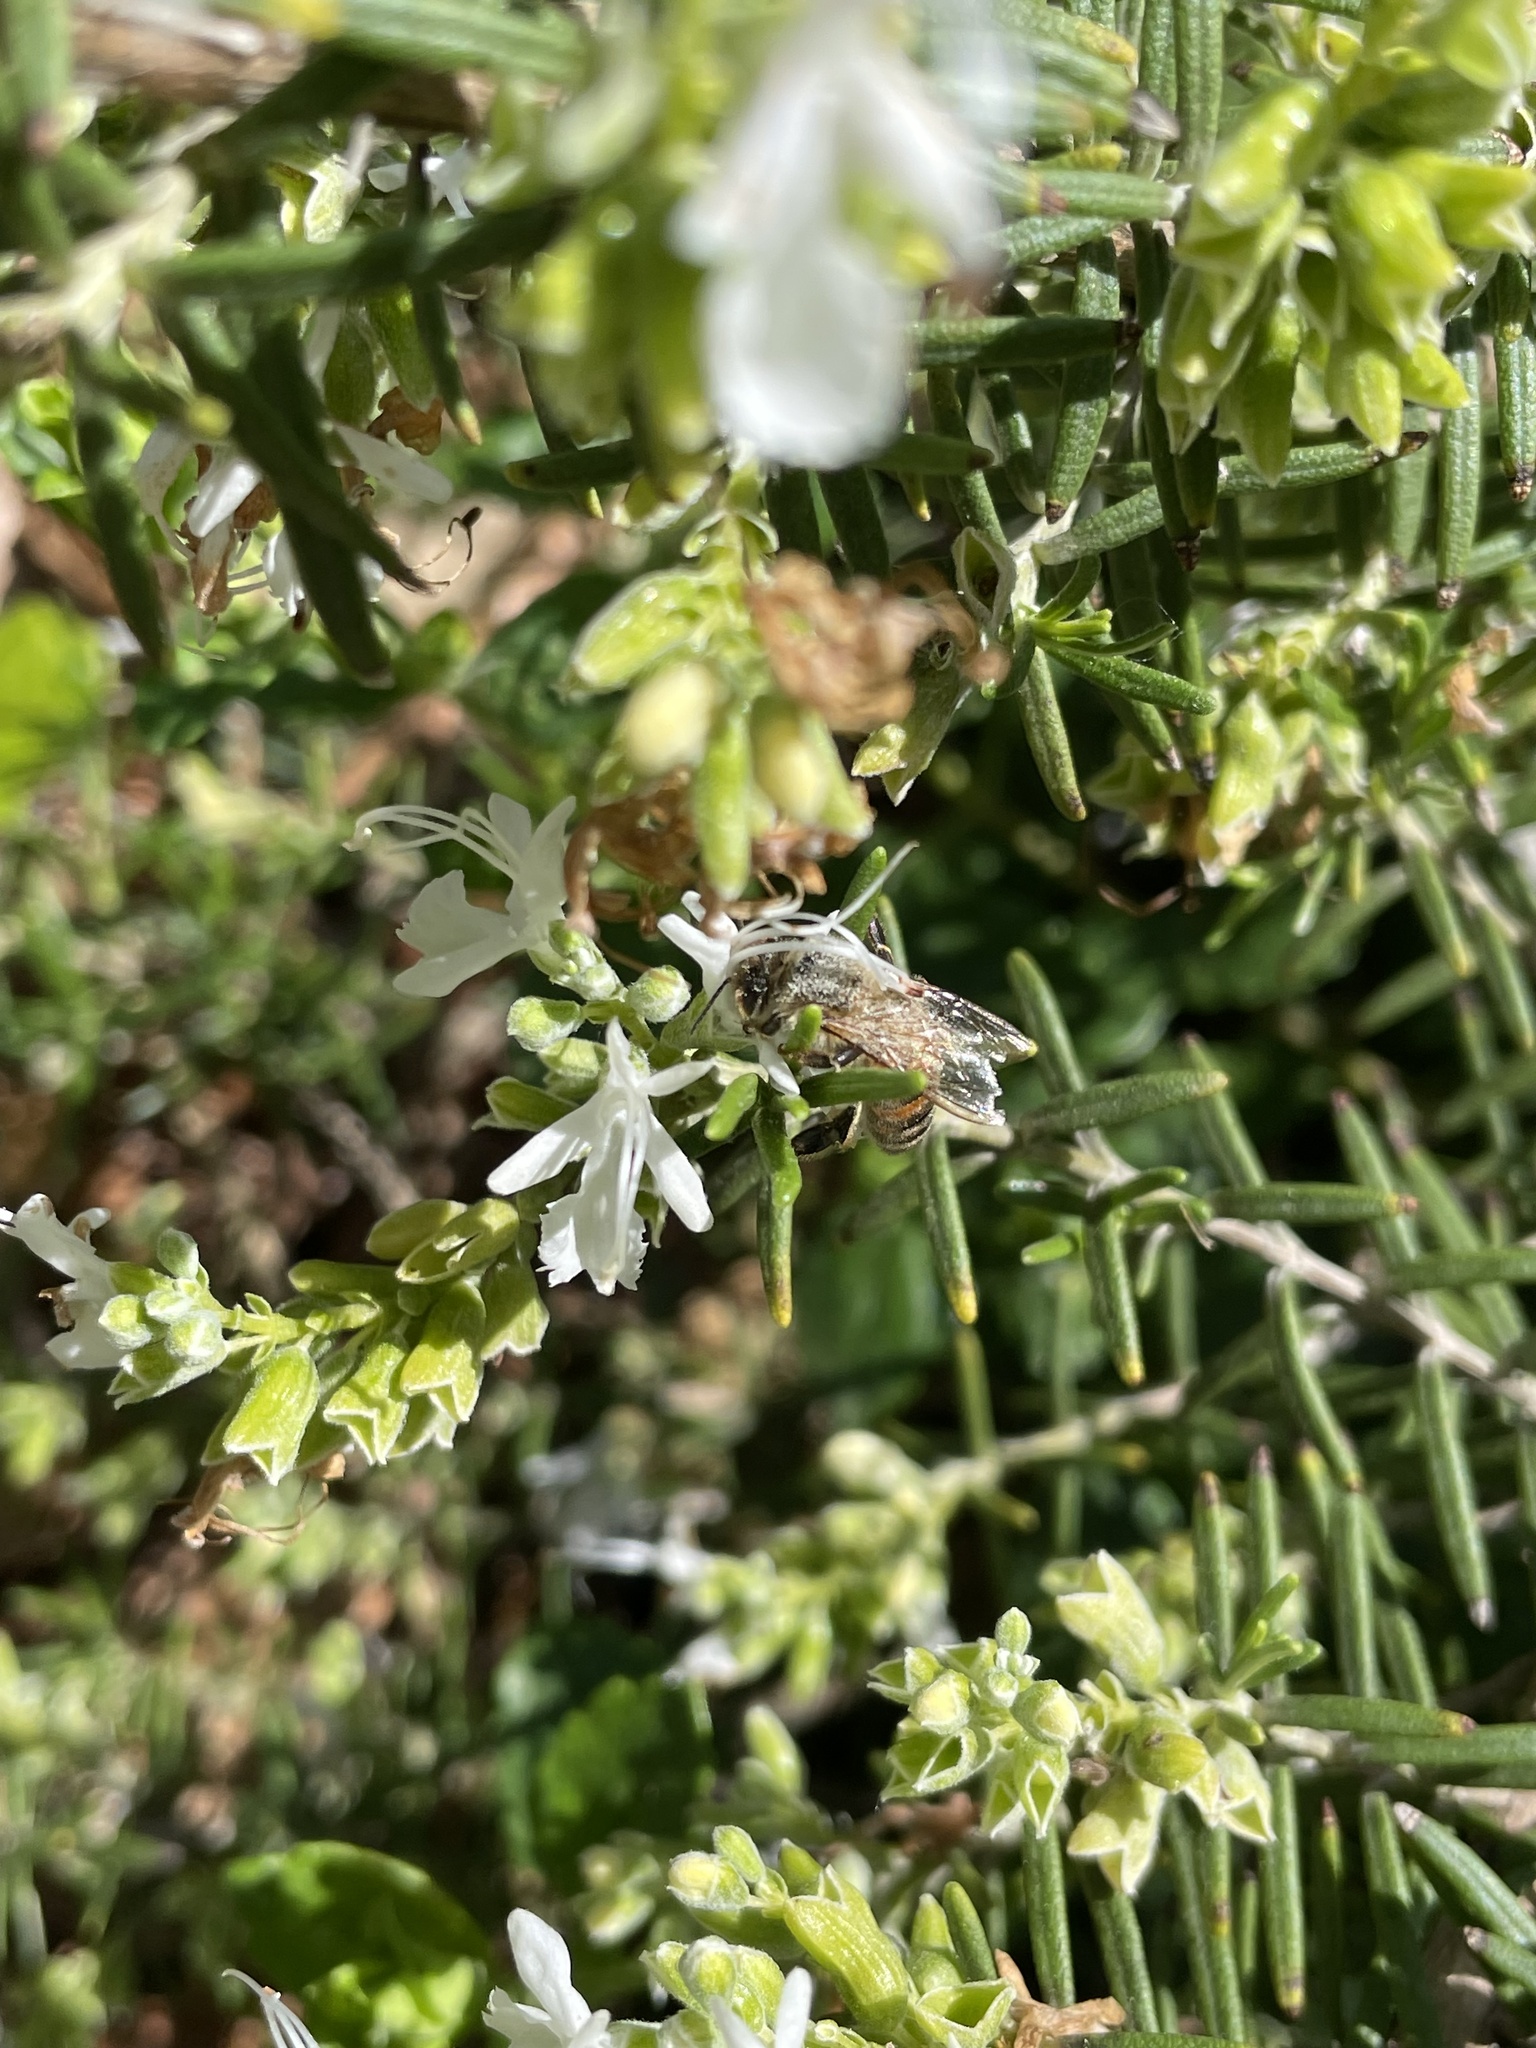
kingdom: Animalia
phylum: Arthropoda
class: Insecta
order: Hymenoptera
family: Apidae
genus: Apis
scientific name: Apis mellifera
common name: Honey bee
